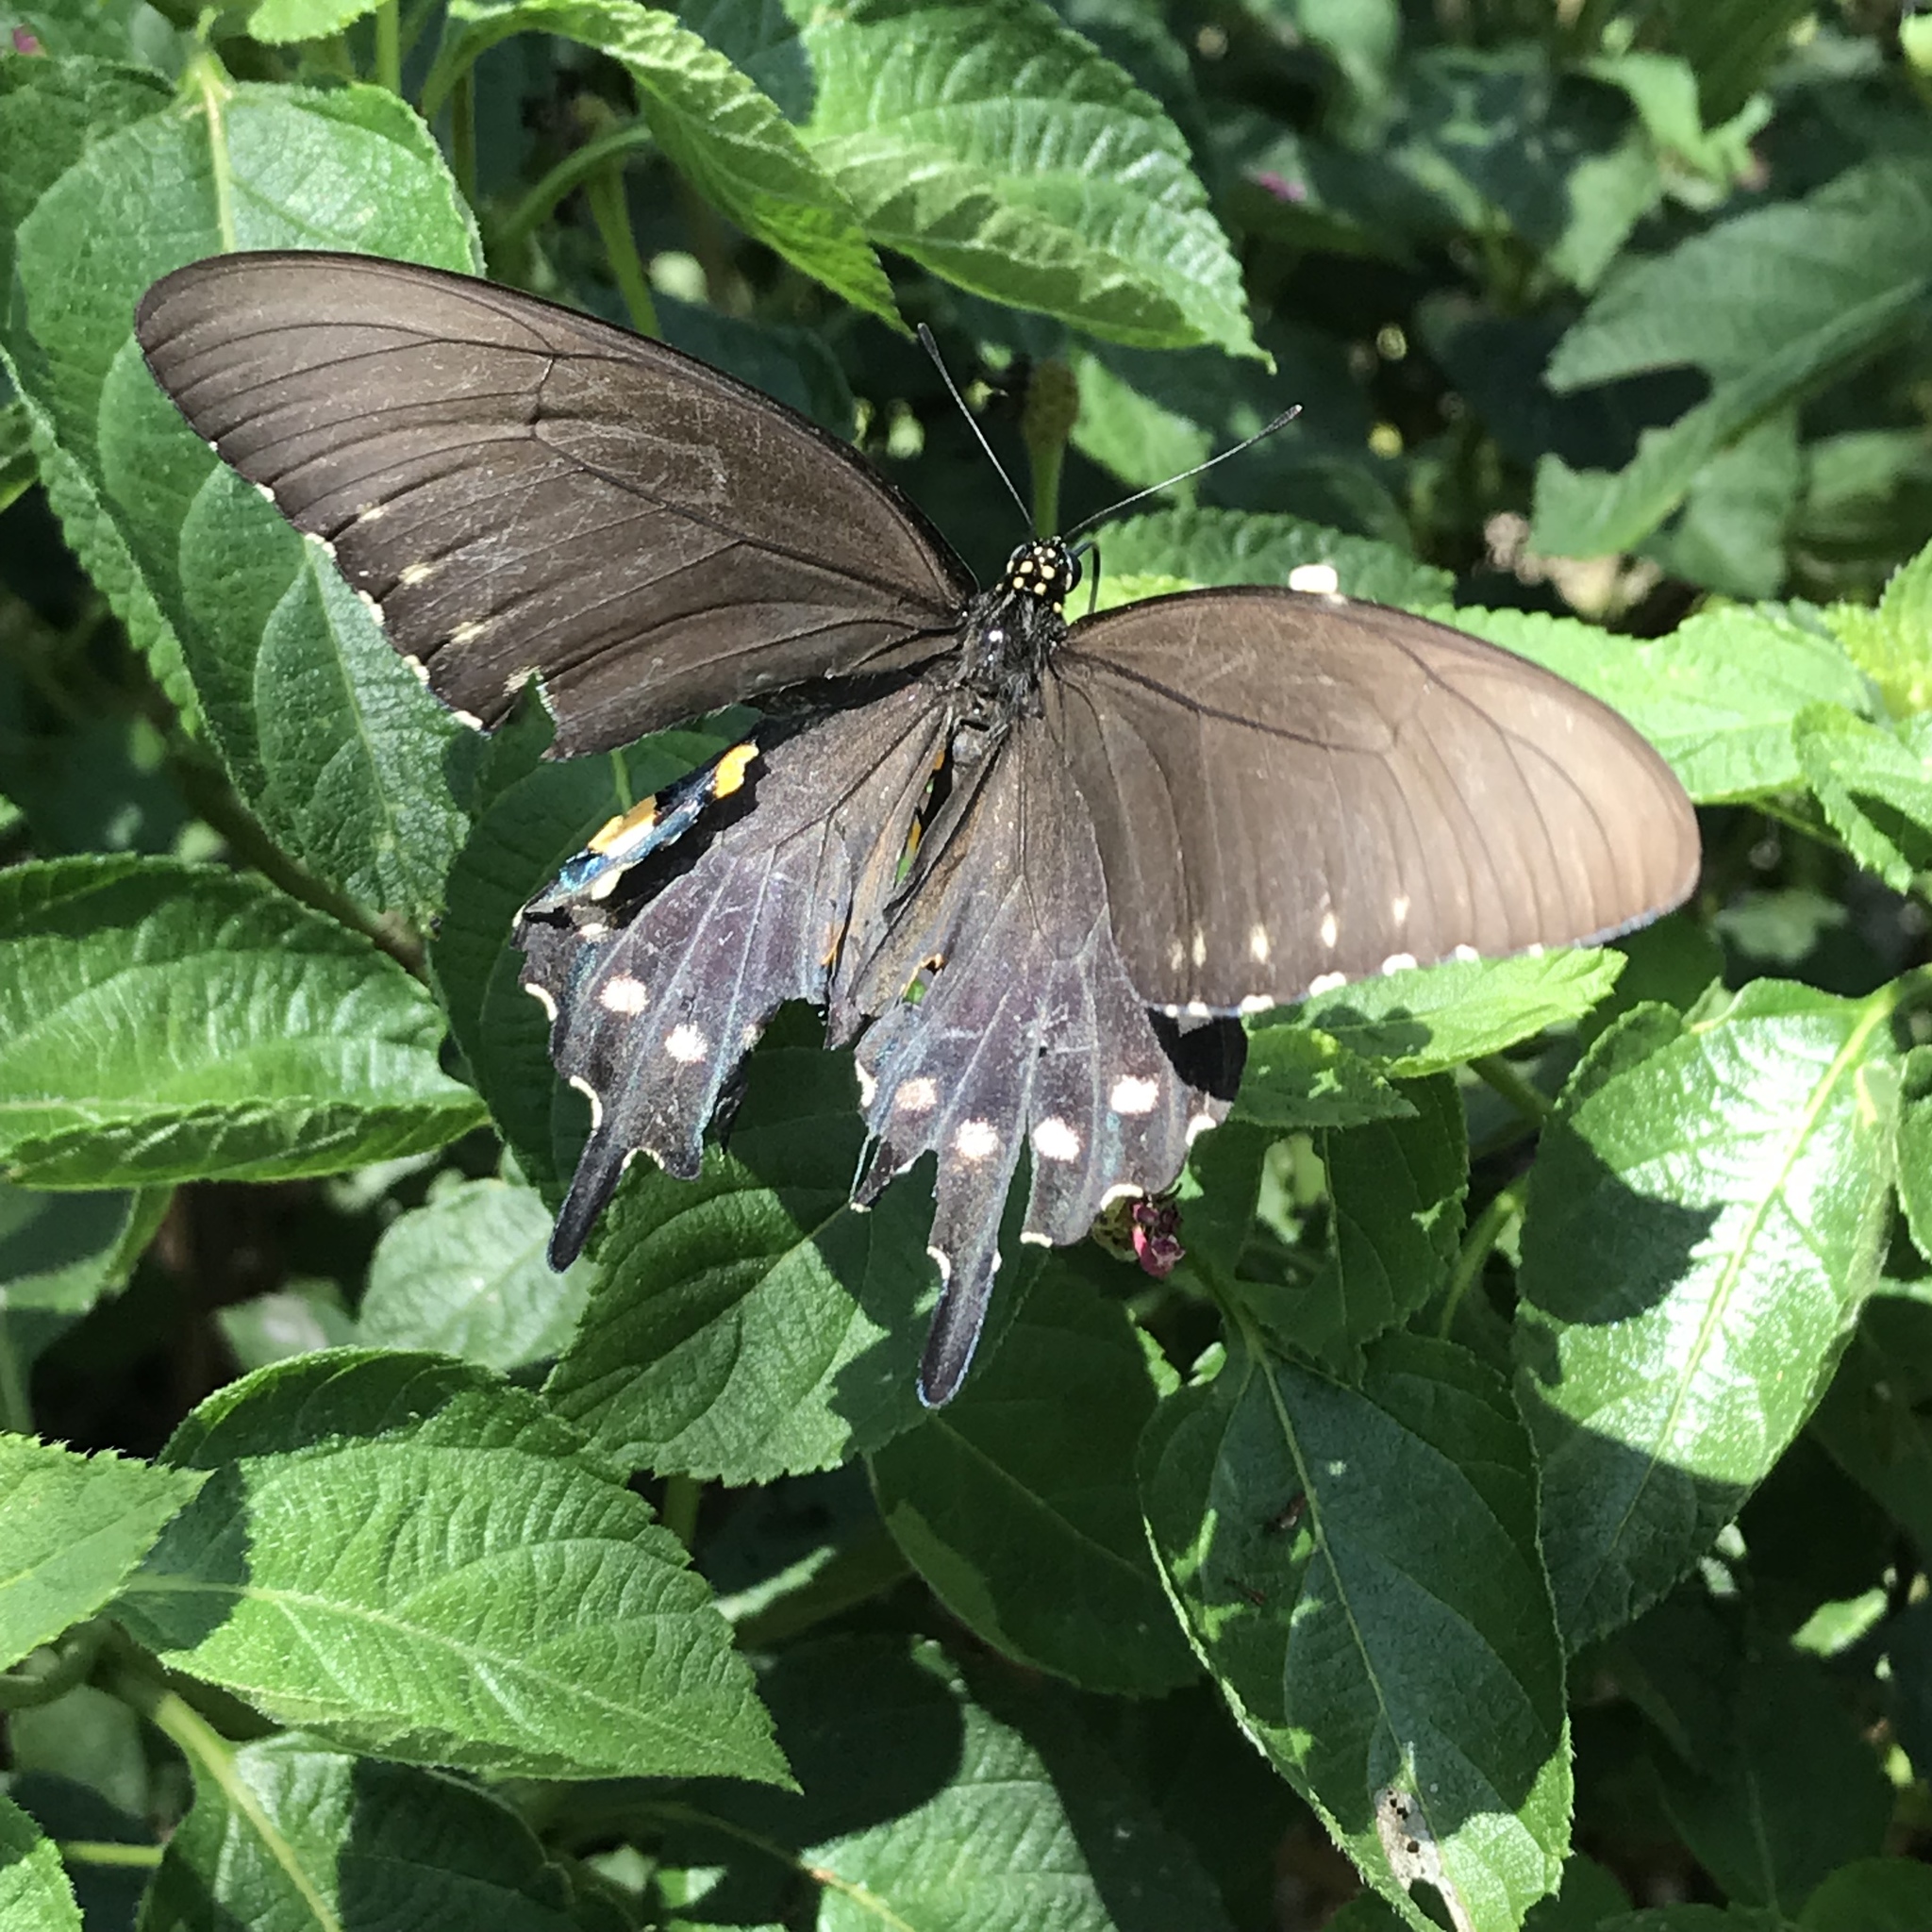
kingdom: Animalia
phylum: Arthropoda
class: Insecta
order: Lepidoptera
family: Papilionidae
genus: Battus
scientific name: Battus philenor
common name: Pipevine swallowtail
